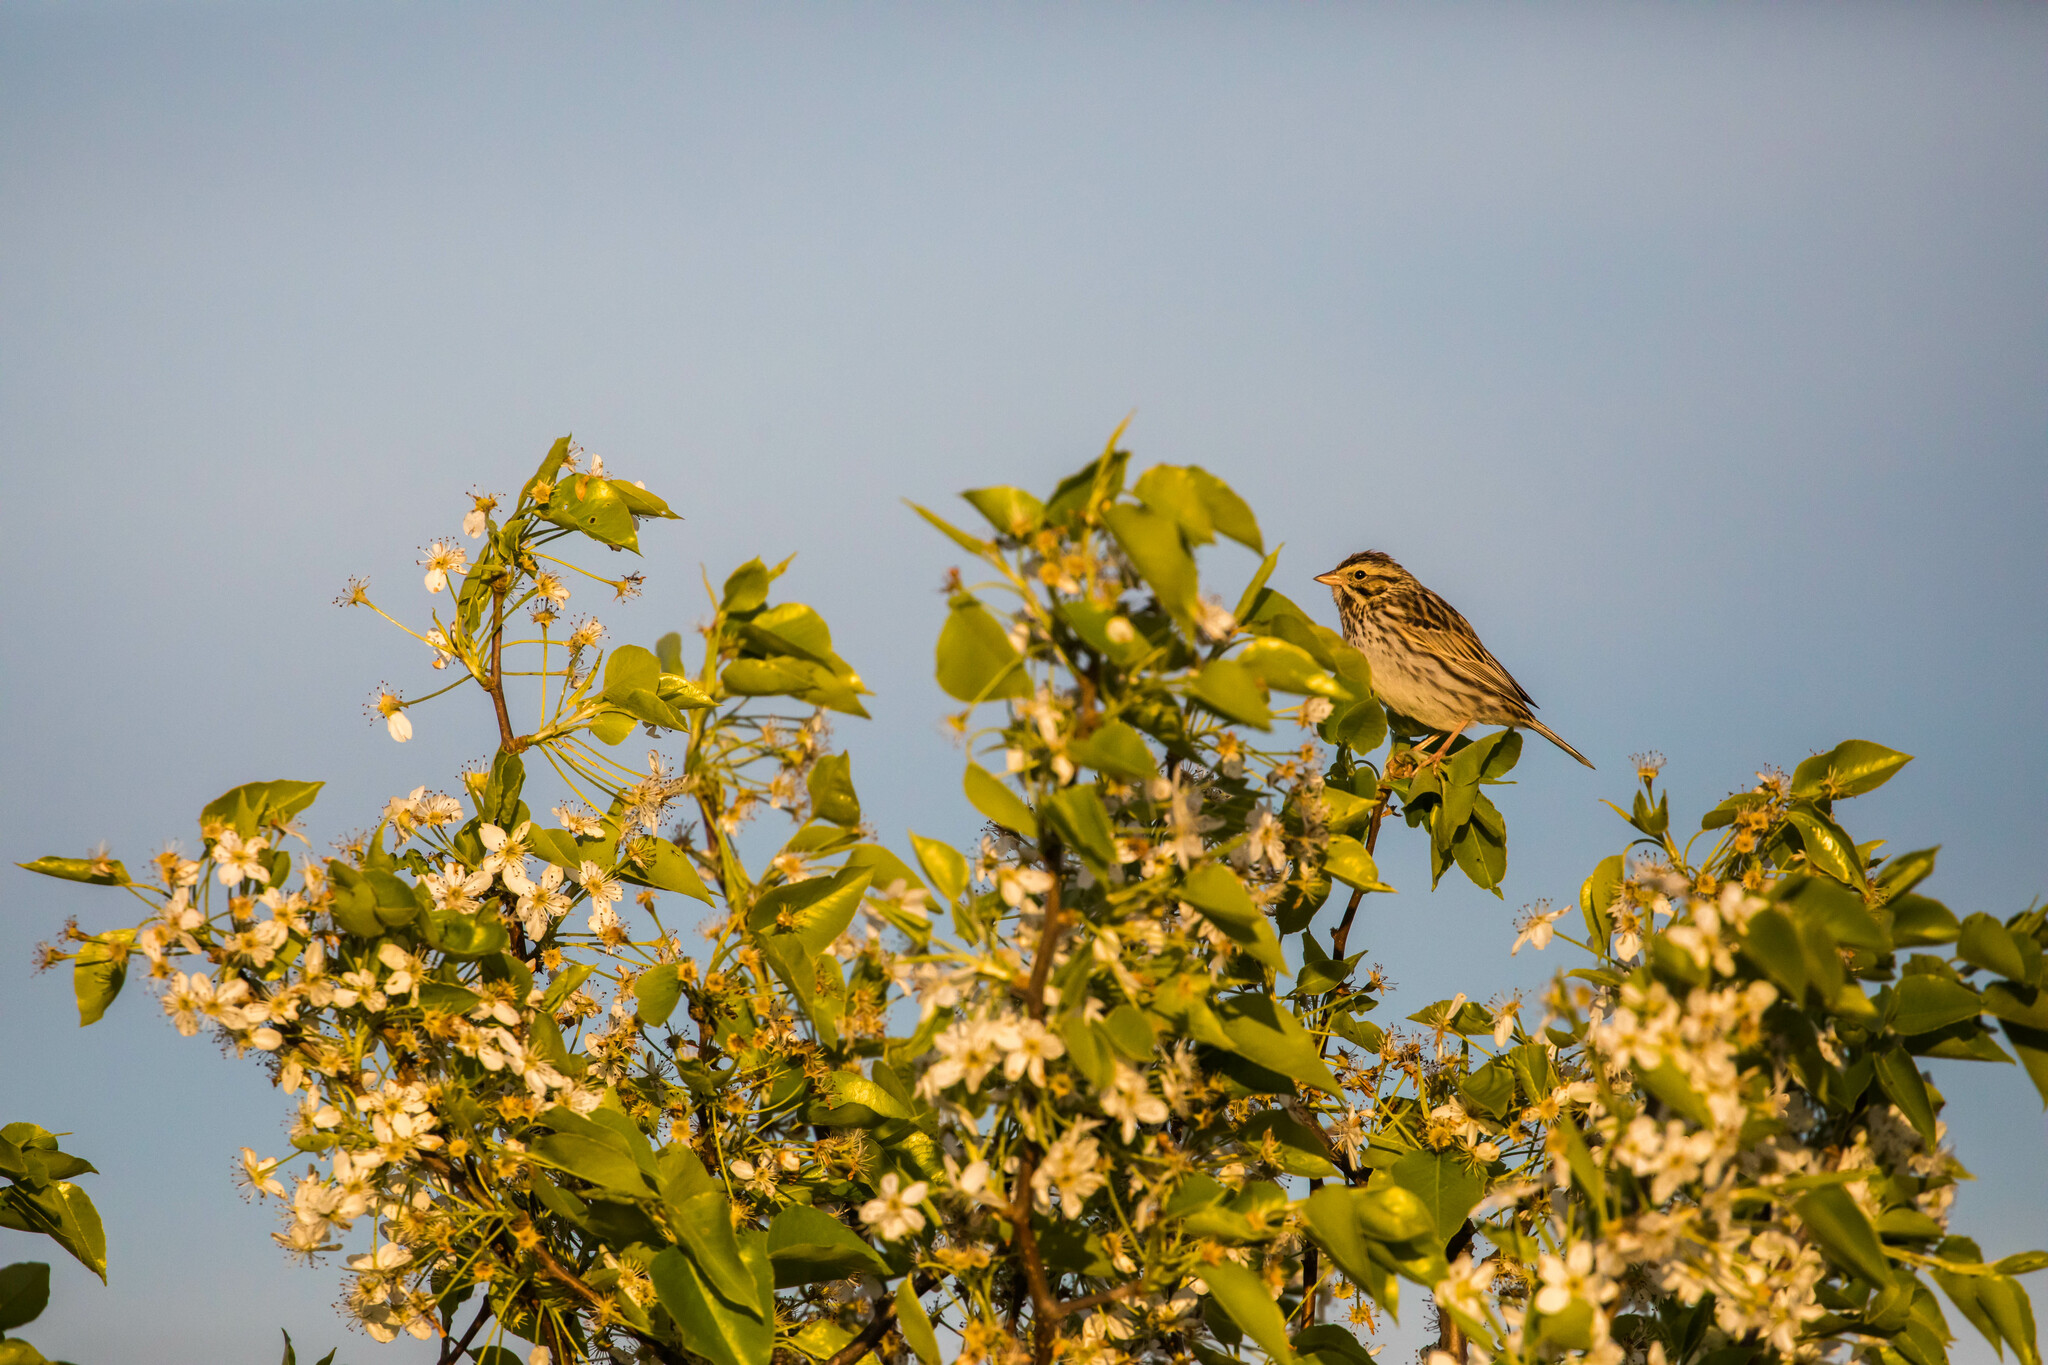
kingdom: Animalia
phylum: Chordata
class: Aves
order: Passeriformes
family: Passerellidae
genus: Passerculus
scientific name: Passerculus sandwichensis
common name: Savannah sparrow
